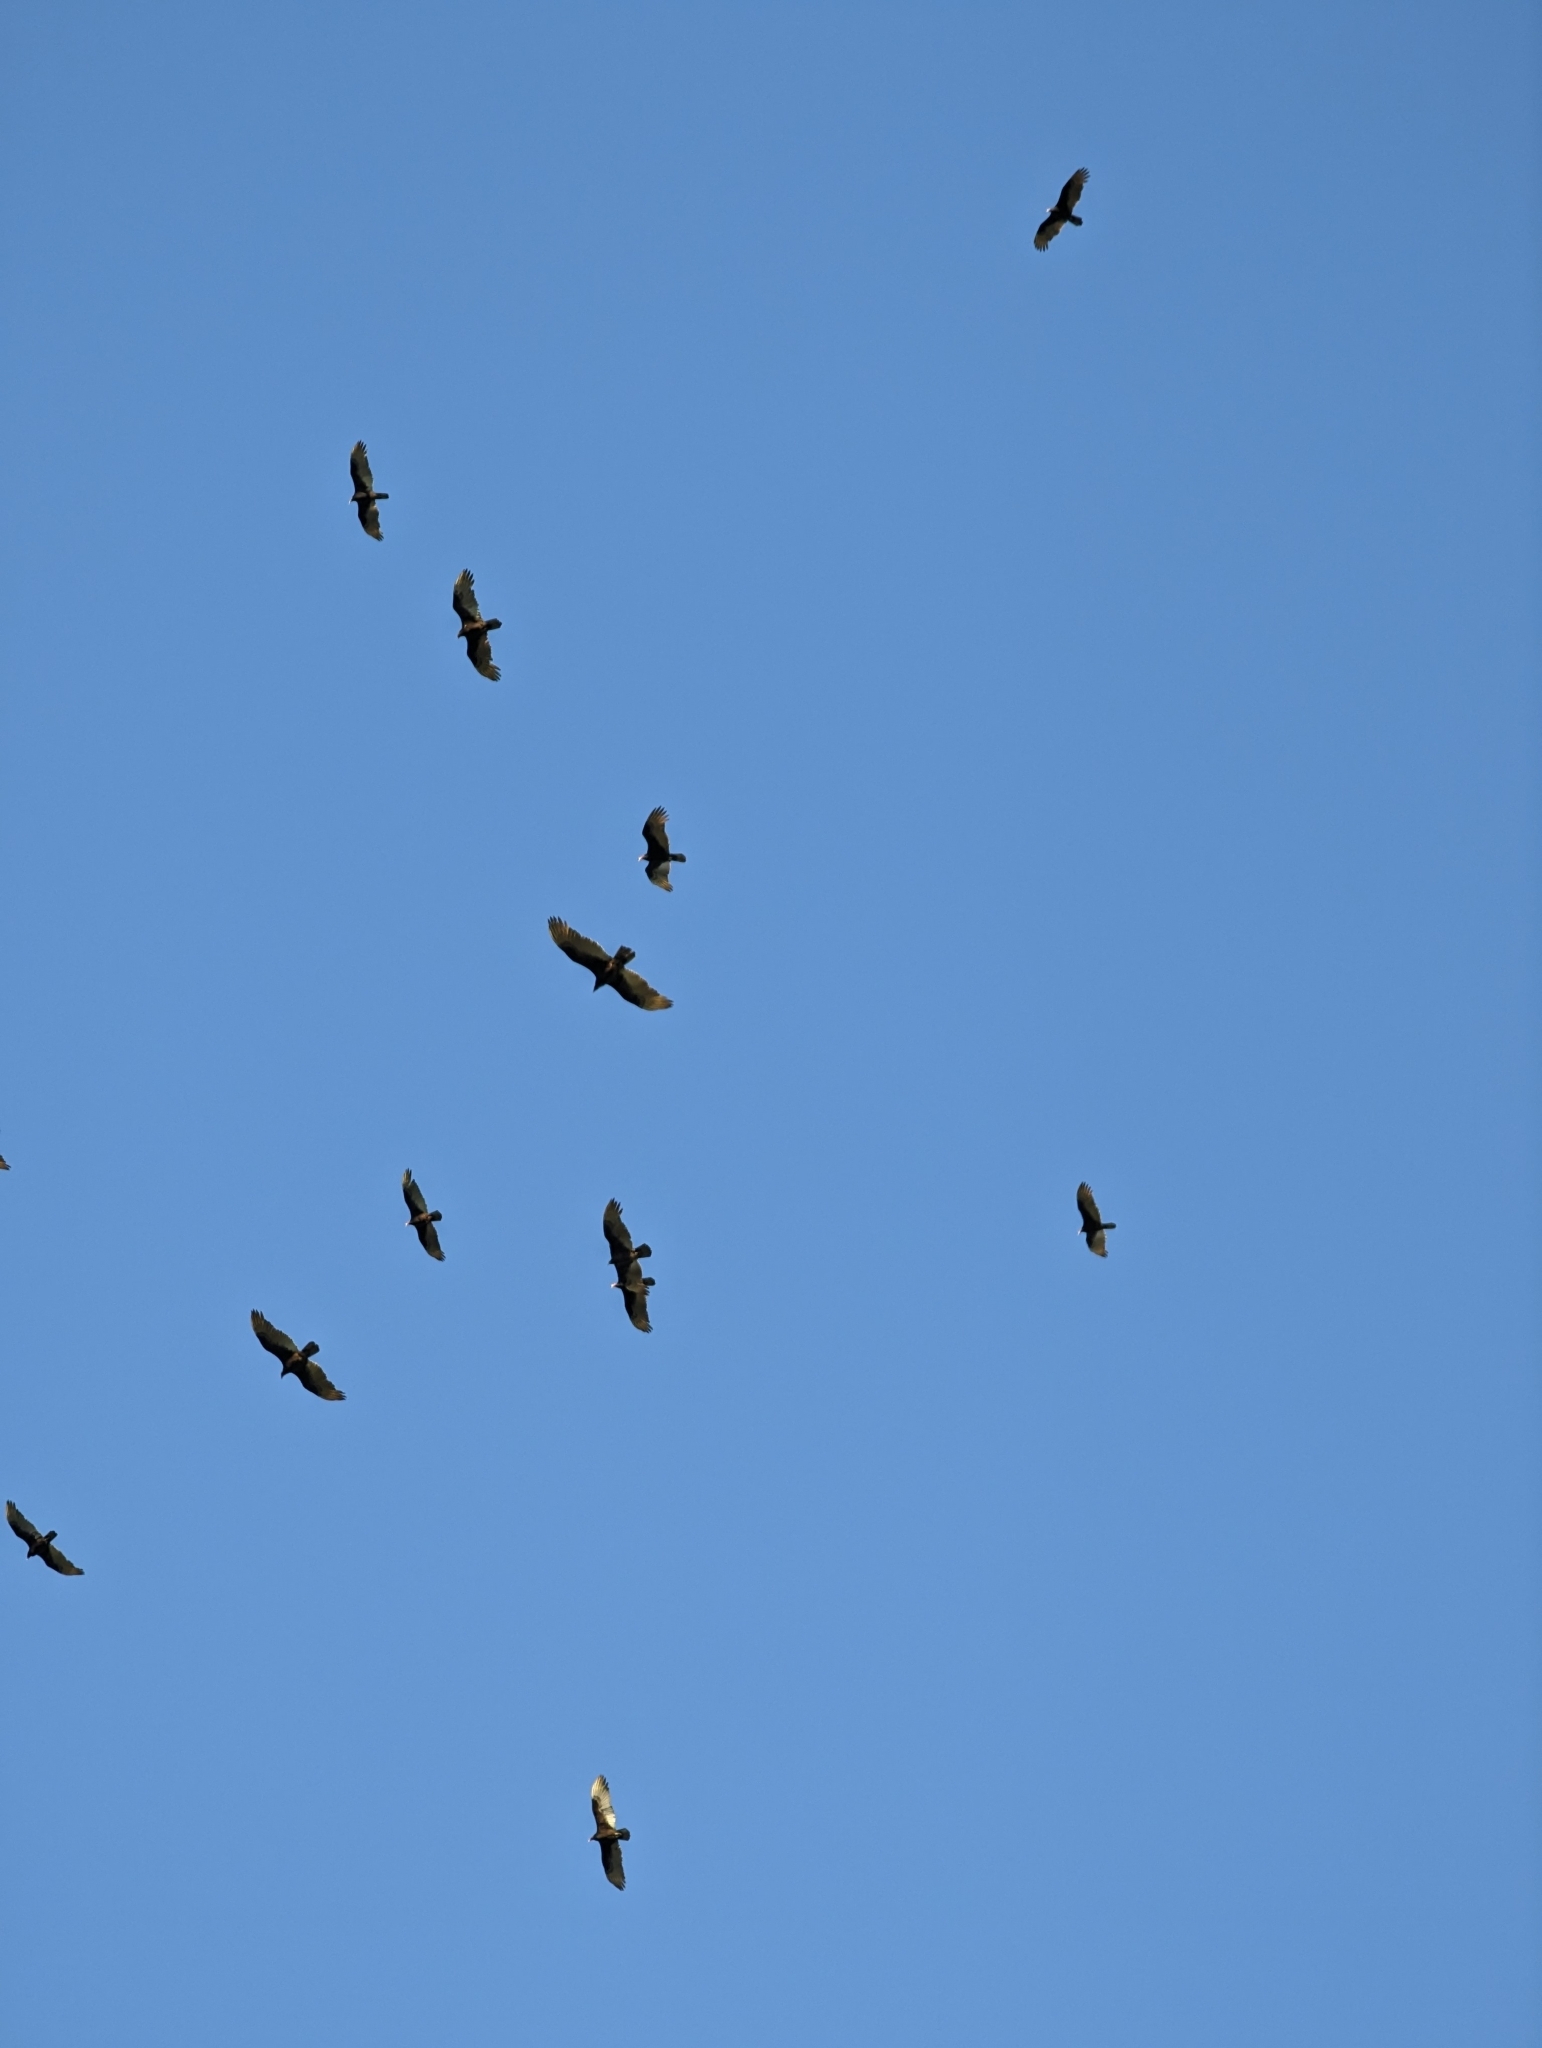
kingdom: Animalia
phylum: Chordata
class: Aves
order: Accipitriformes
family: Cathartidae
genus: Cathartes
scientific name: Cathartes aura
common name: Turkey vulture
